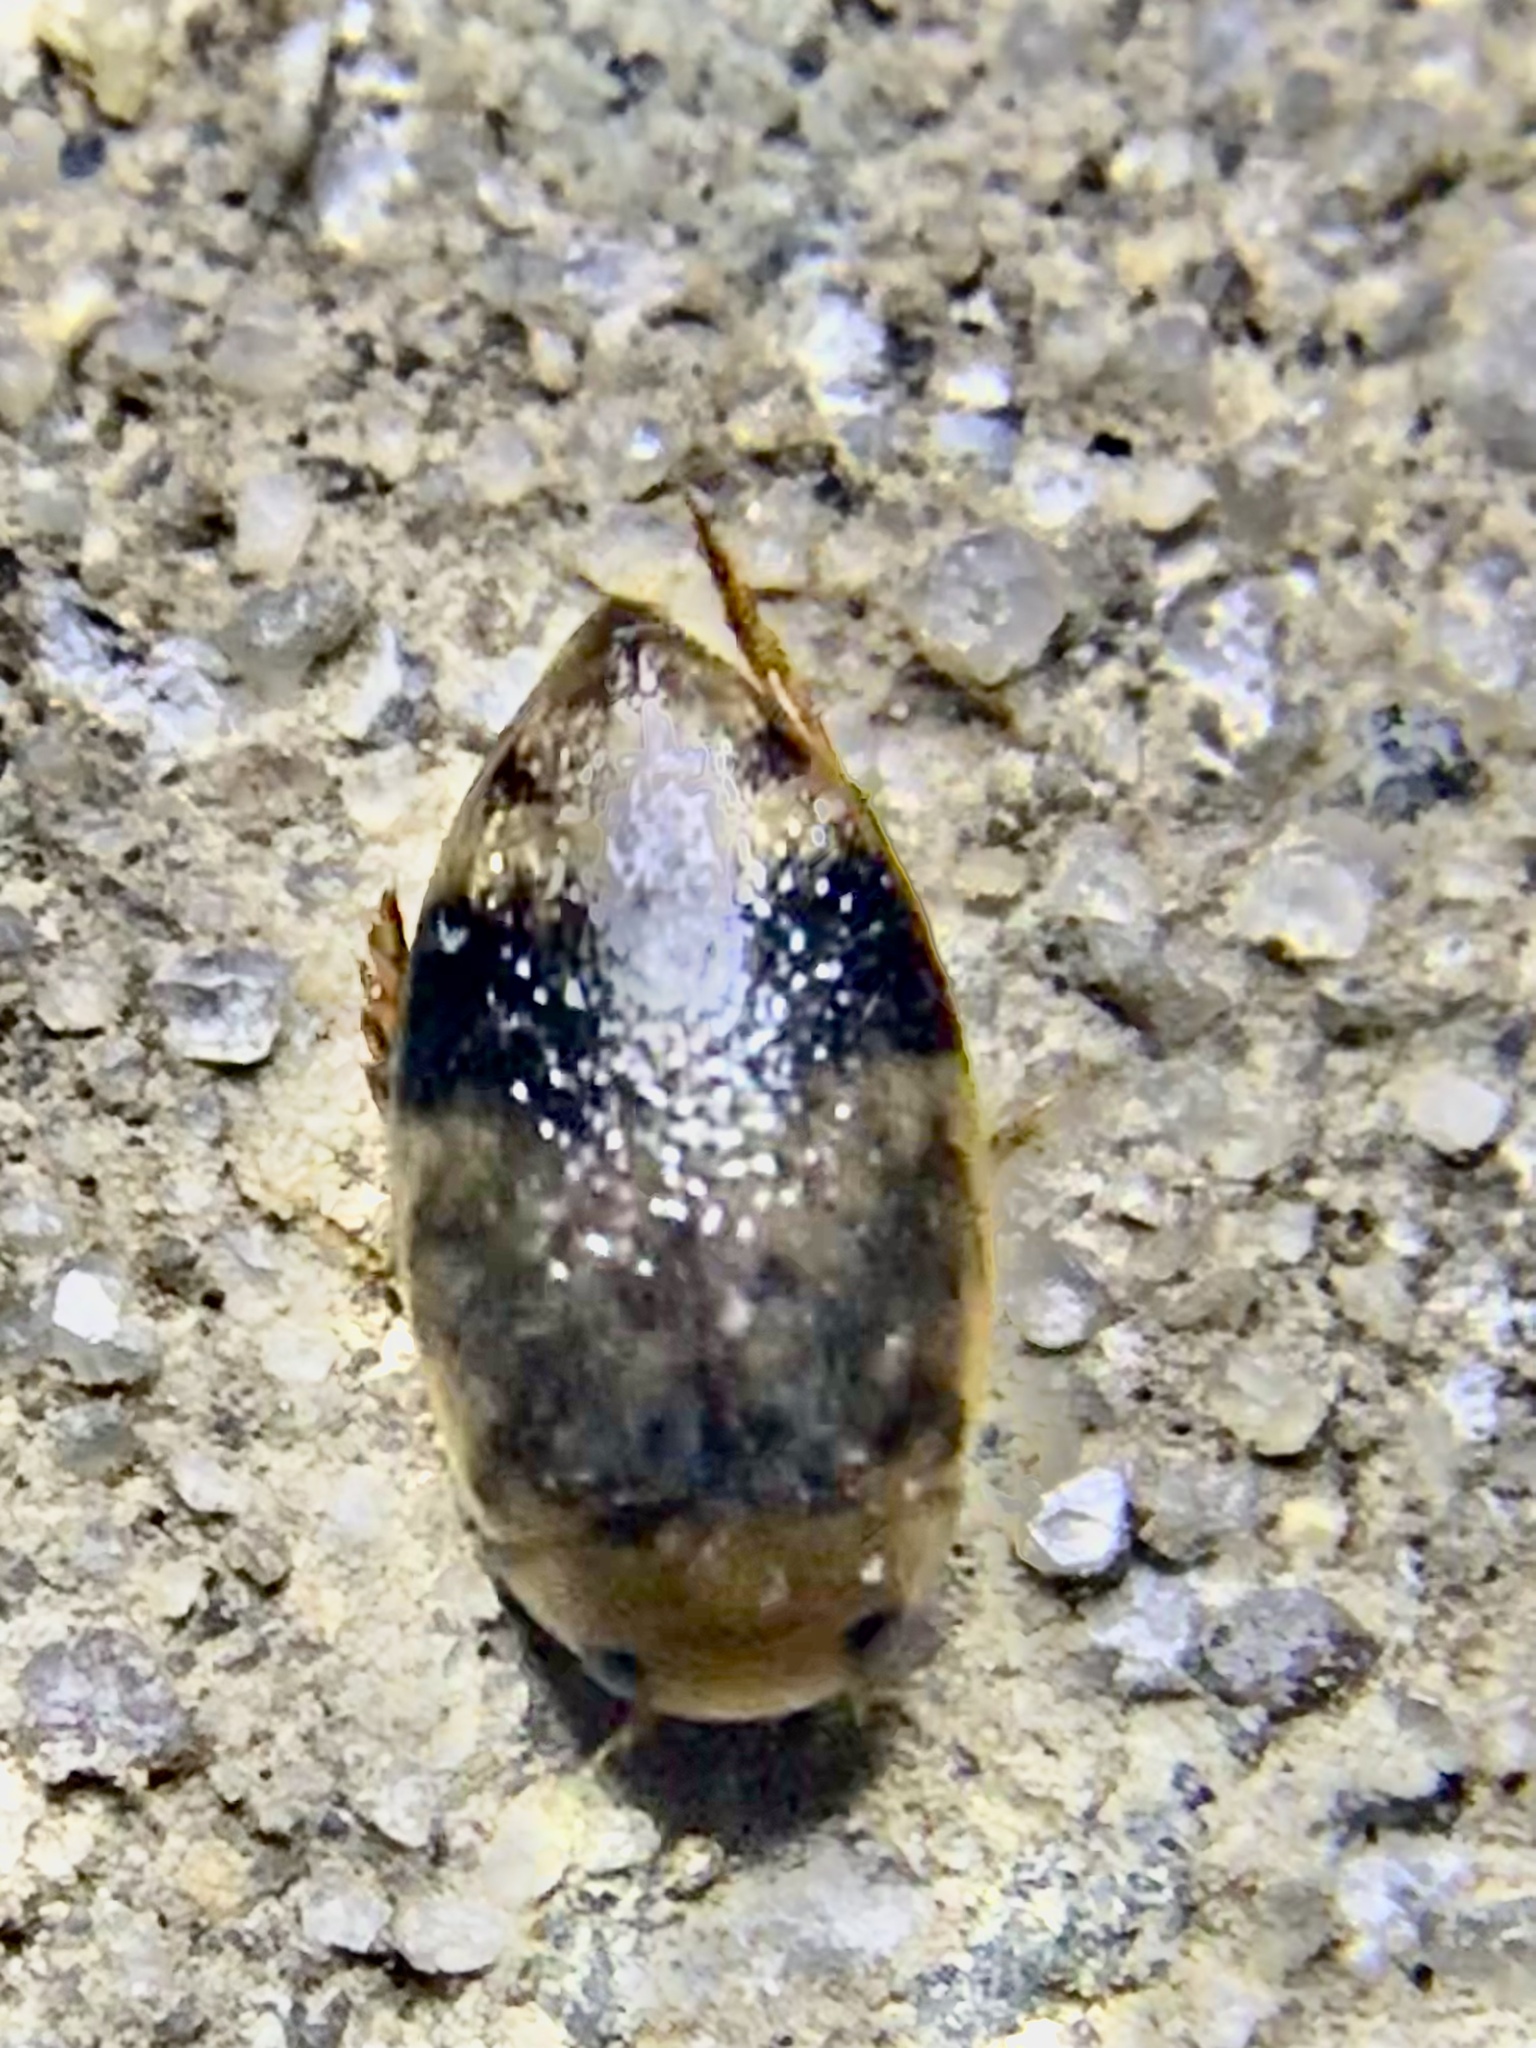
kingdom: Animalia
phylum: Arthropoda
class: Insecta
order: Coleoptera
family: Dytiscidae
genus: Laccophilus
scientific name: Laccophilus fasciatus
